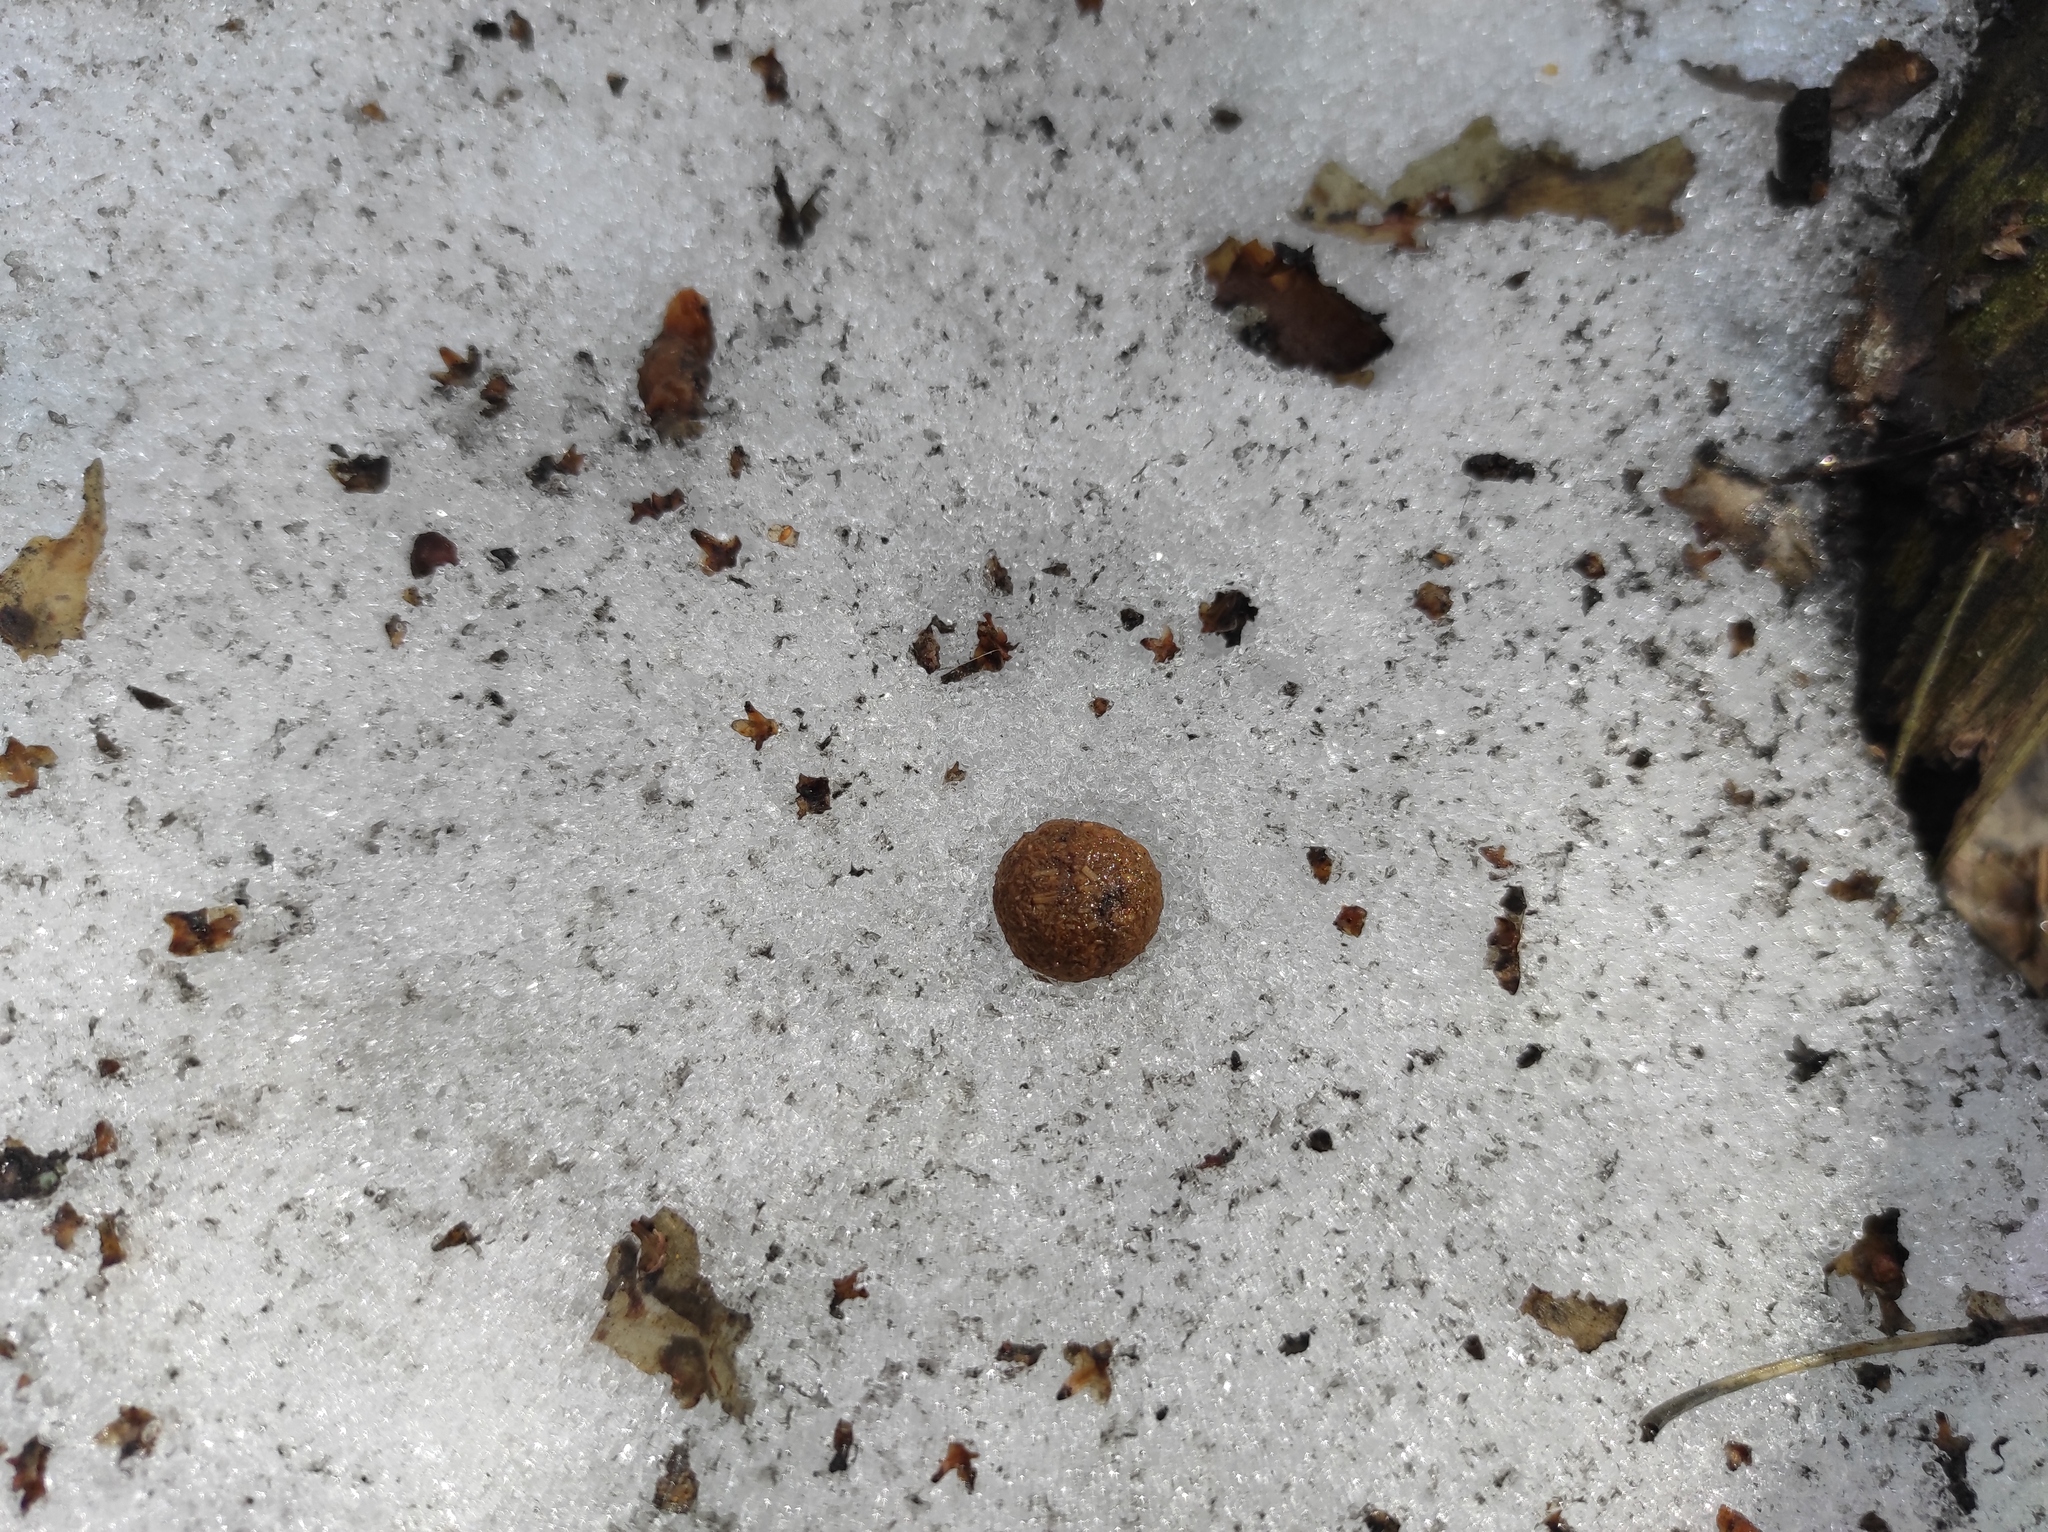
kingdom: Animalia
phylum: Chordata
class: Mammalia
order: Lagomorpha
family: Leporidae
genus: Lepus
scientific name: Lepus timidus
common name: Mountain hare
